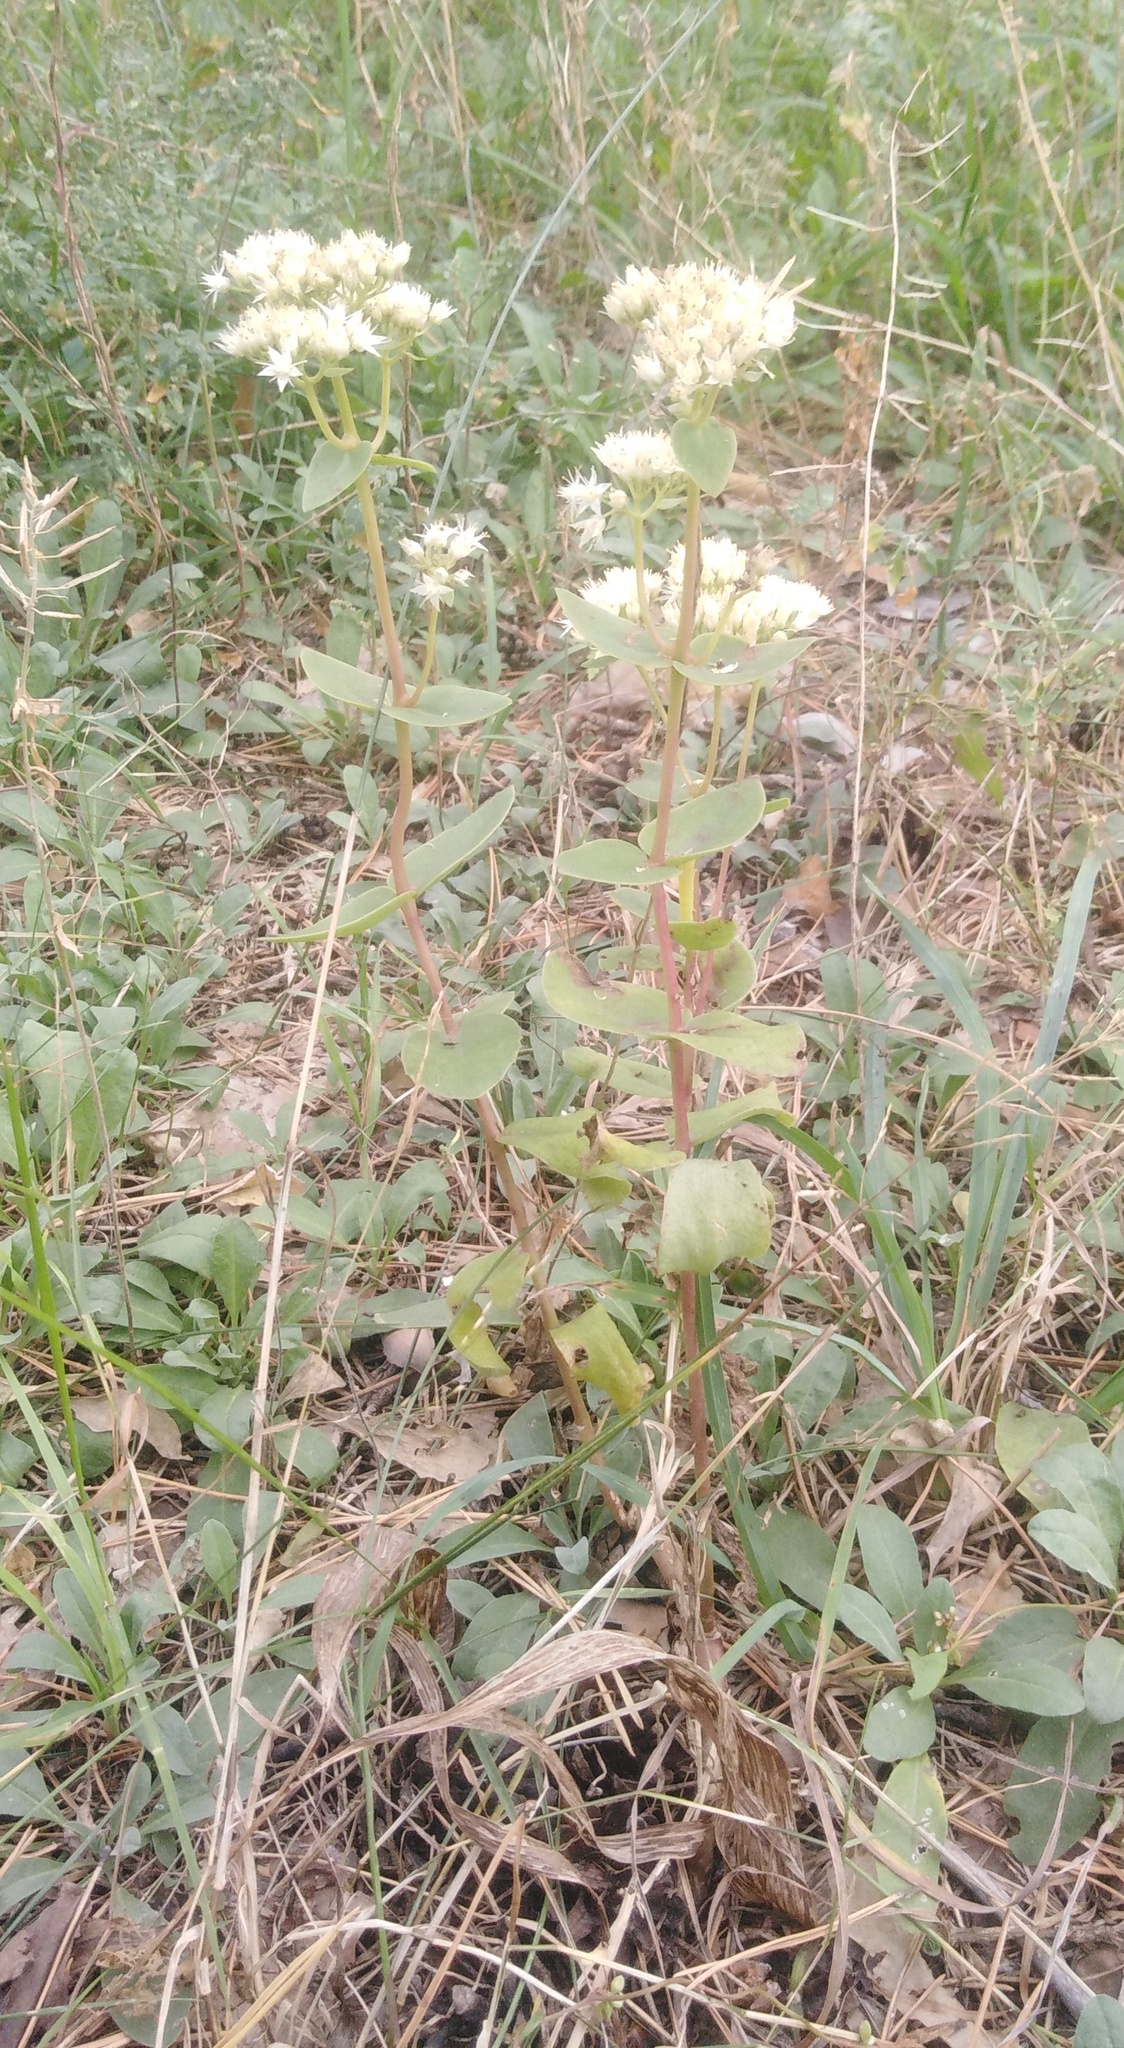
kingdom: Plantae
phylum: Tracheophyta
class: Magnoliopsida
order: Saxifragales
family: Crassulaceae
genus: Hylotelephium
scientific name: Hylotelephium maximum
